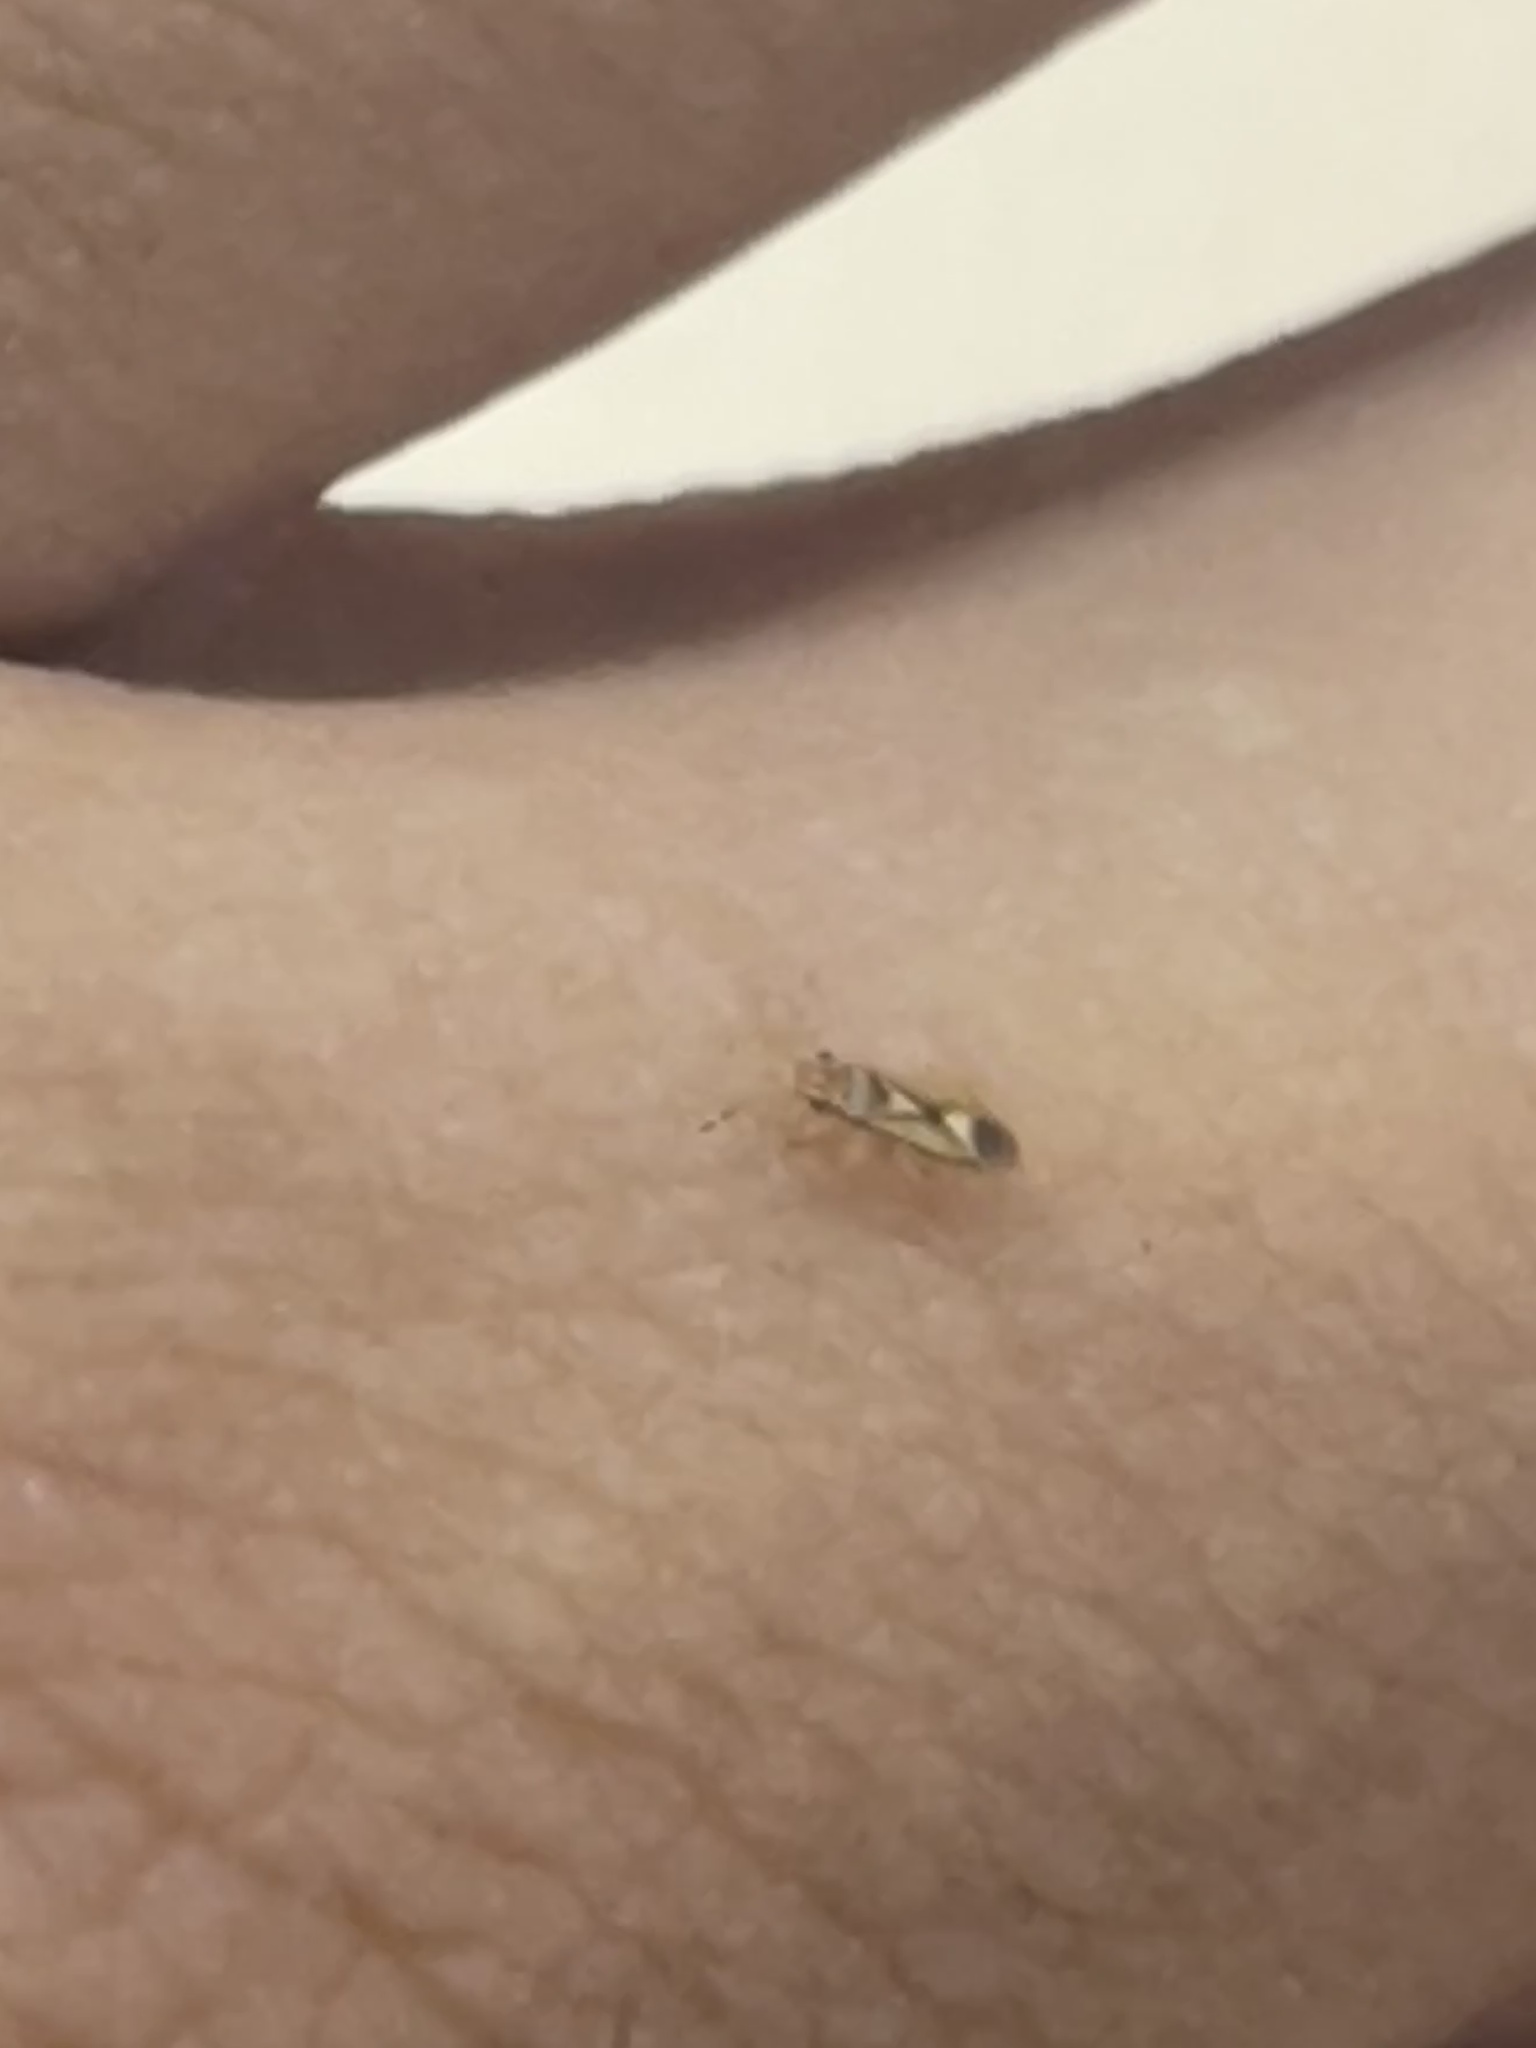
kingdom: Animalia
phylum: Arthropoda
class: Insecta
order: Hemiptera
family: Thaumastocoridae
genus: Thaumastocoris
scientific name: Thaumastocoris peregrinus
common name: Bronze bug
